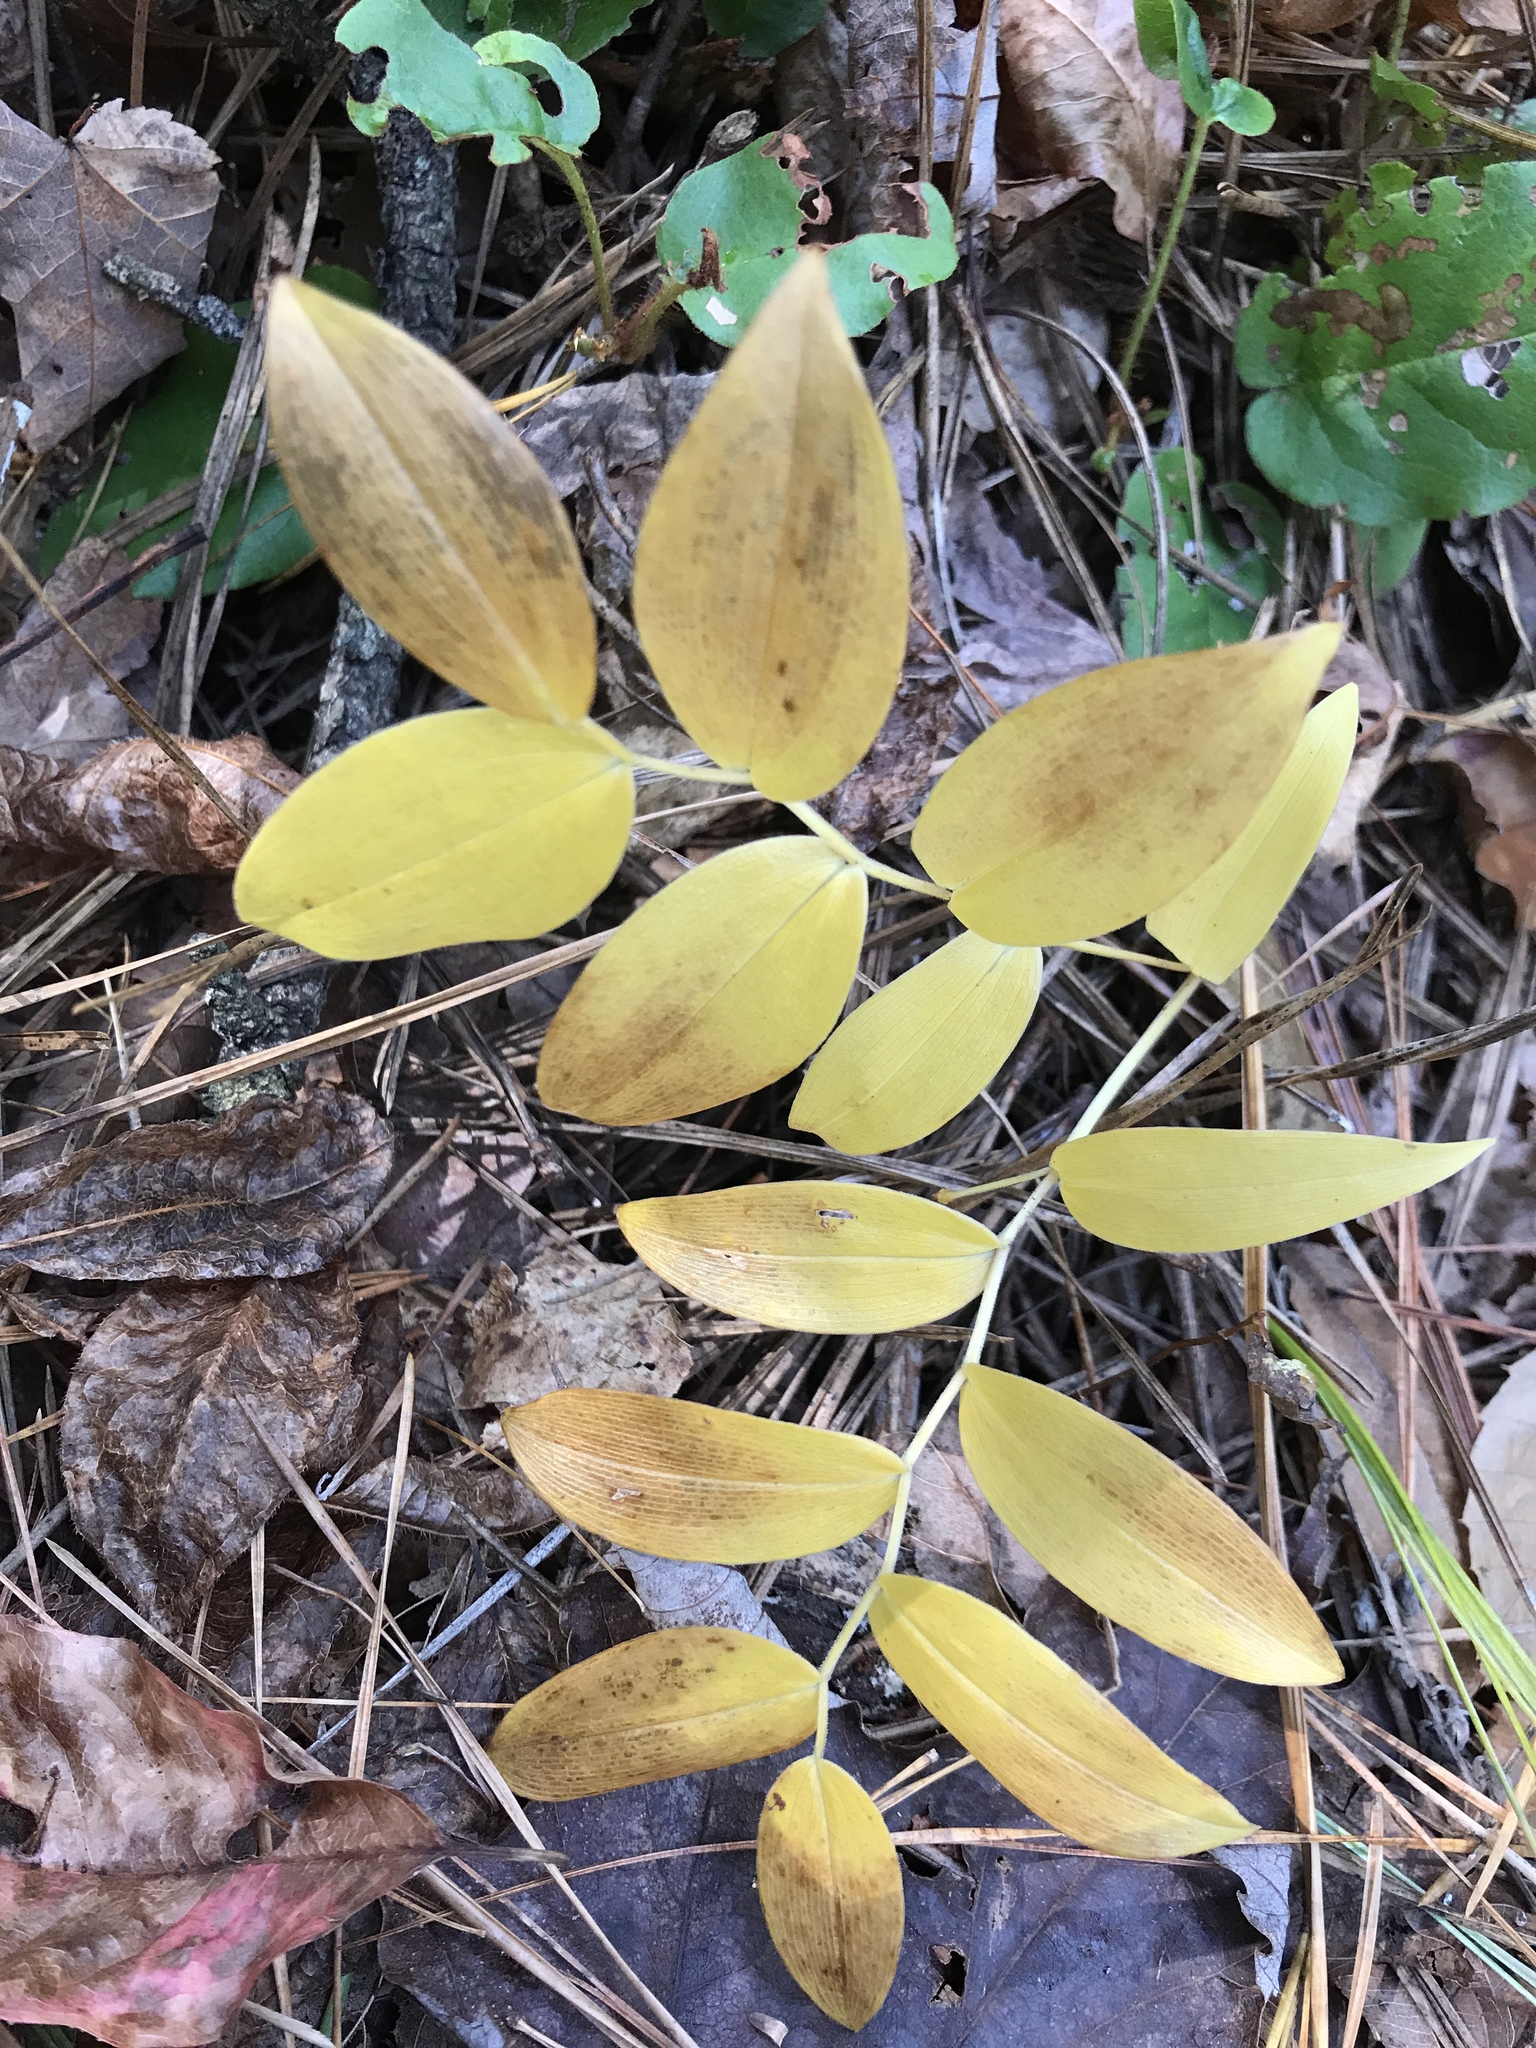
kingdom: Plantae
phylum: Tracheophyta
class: Liliopsida
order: Liliales
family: Colchicaceae
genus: Uvularia
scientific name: Uvularia puberula
